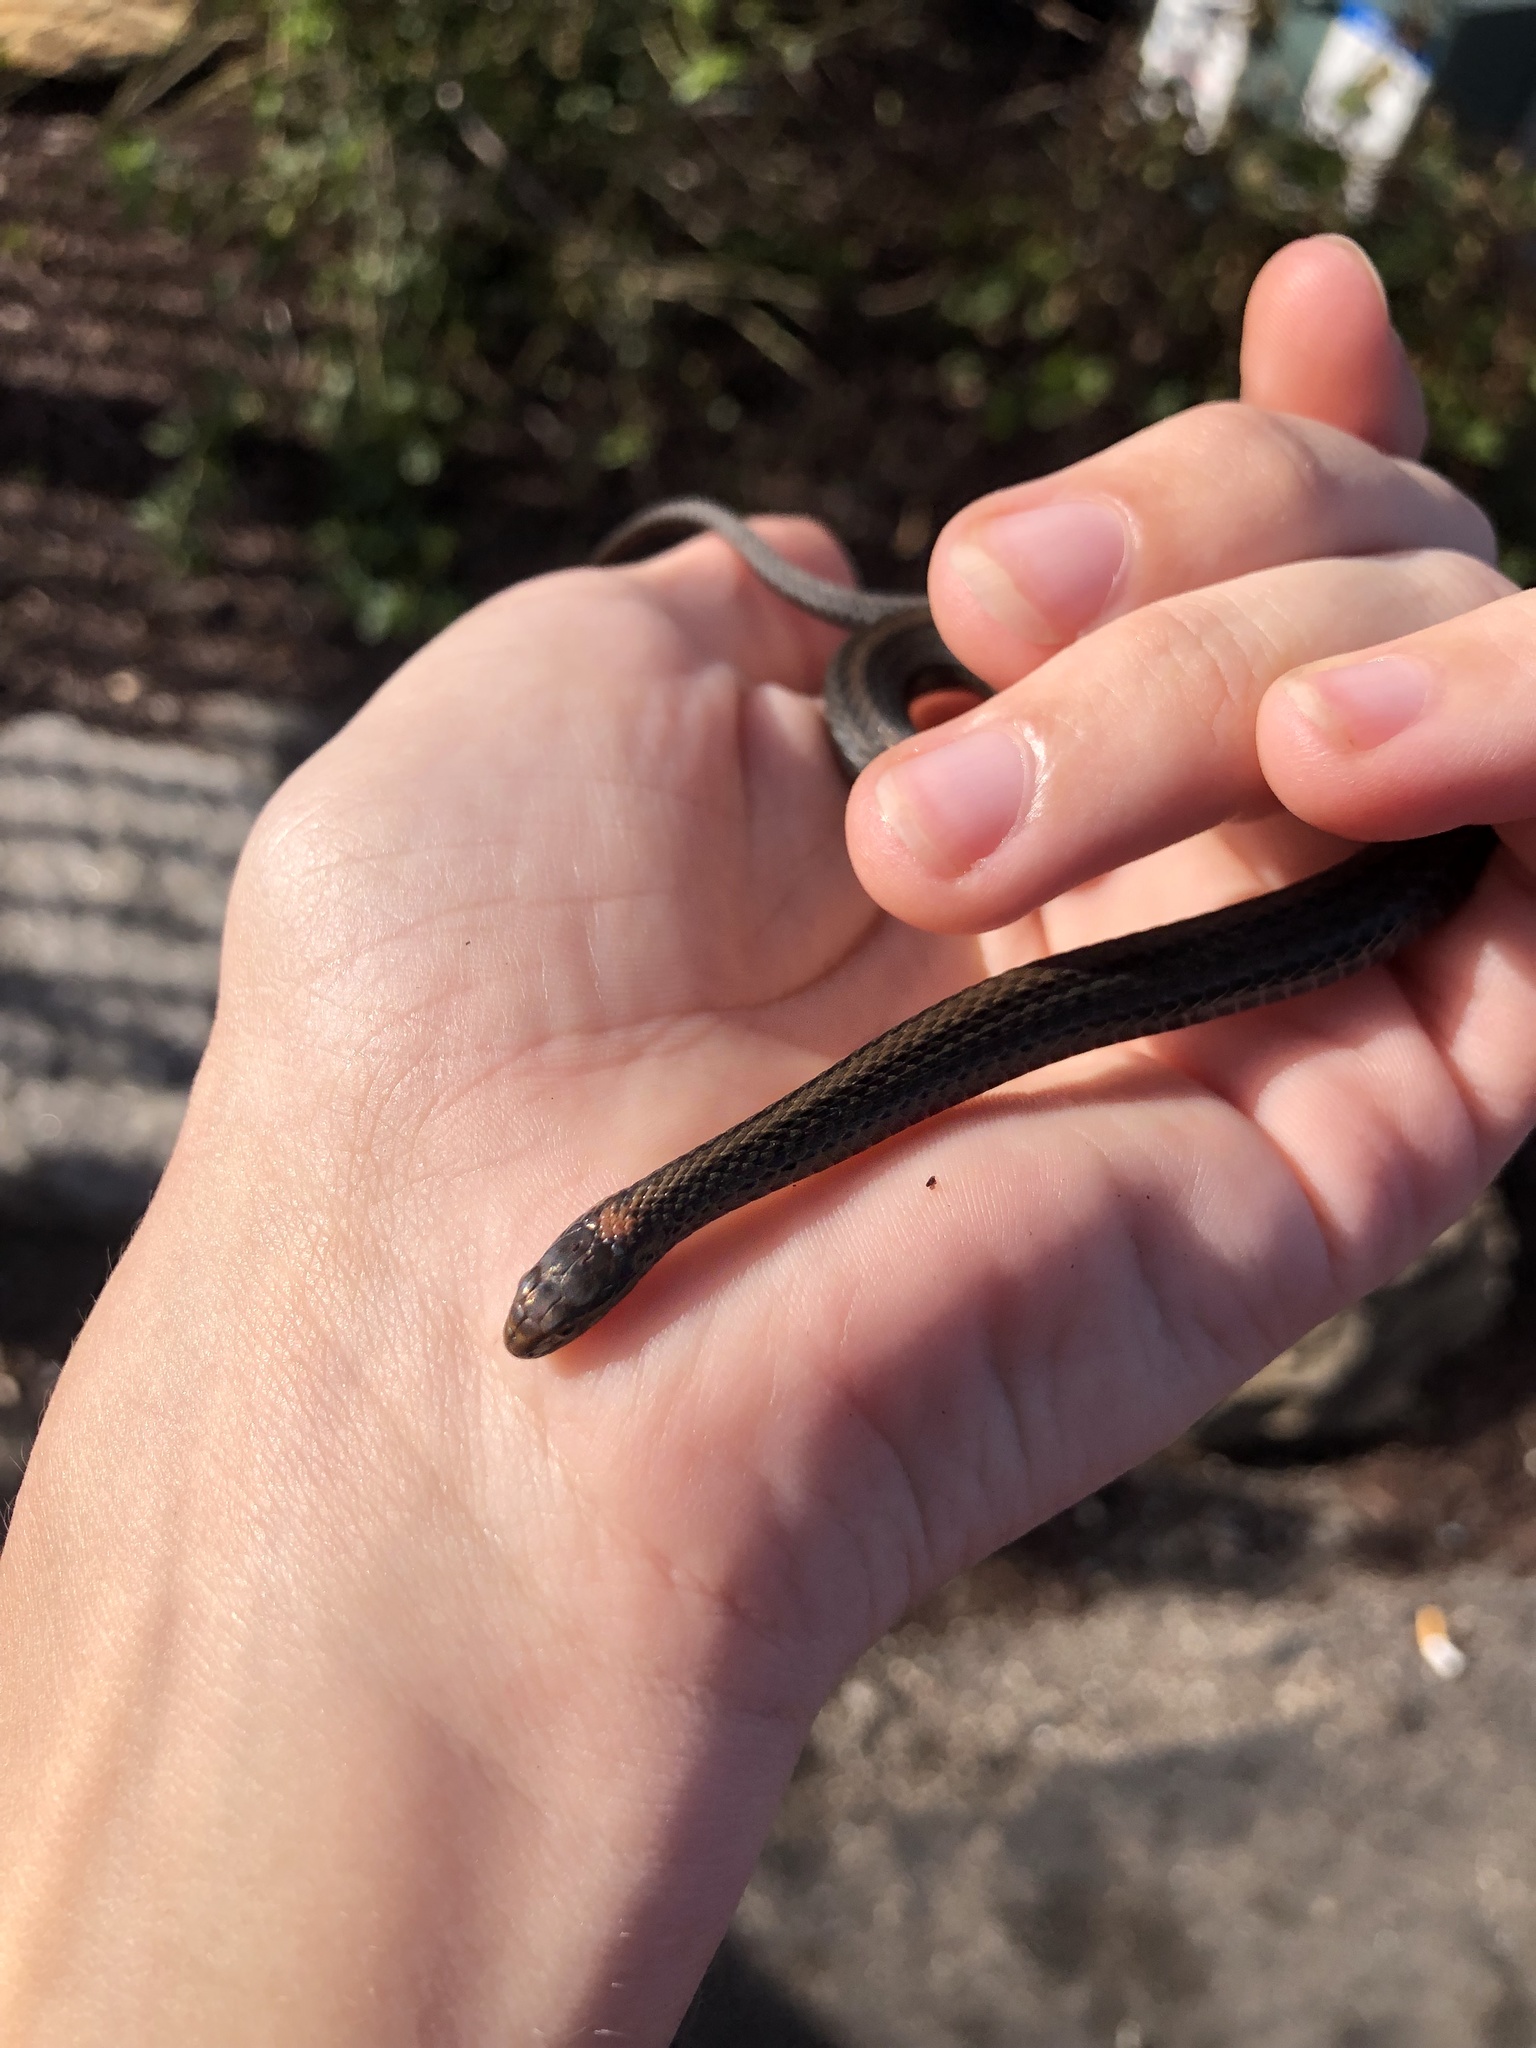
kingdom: Animalia
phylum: Chordata
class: Squamata
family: Colubridae
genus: Storeria
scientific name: Storeria occipitomaculata
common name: Redbelly snake
